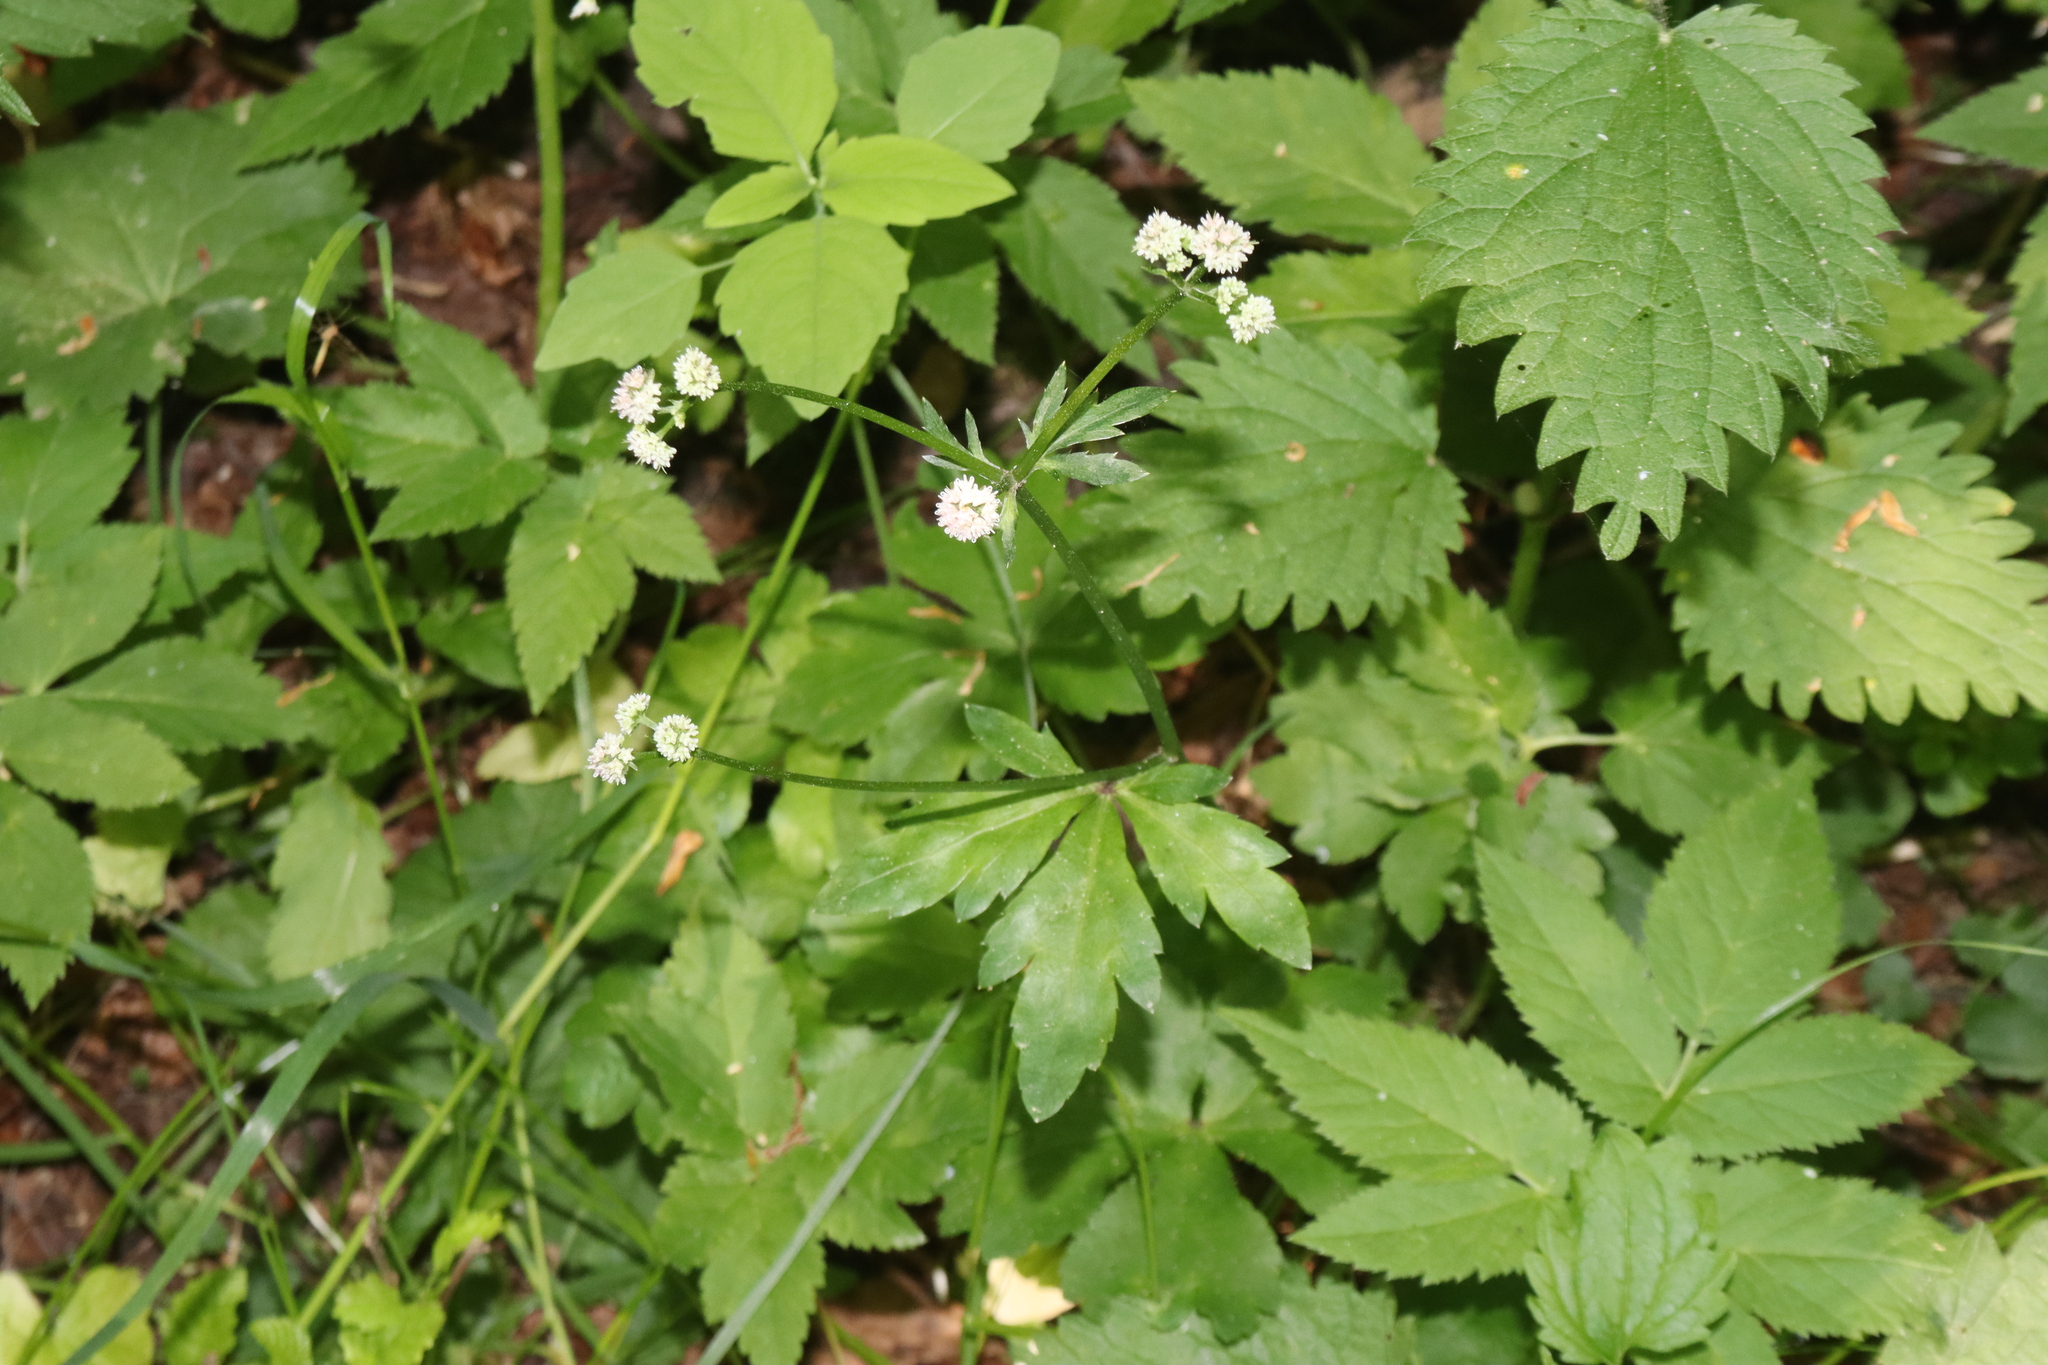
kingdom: Plantae
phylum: Tracheophyta
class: Magnoliopsida
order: Apiales
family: Apiaceae
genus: Sanicula
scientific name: Sanicula europaea
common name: Sanicle
